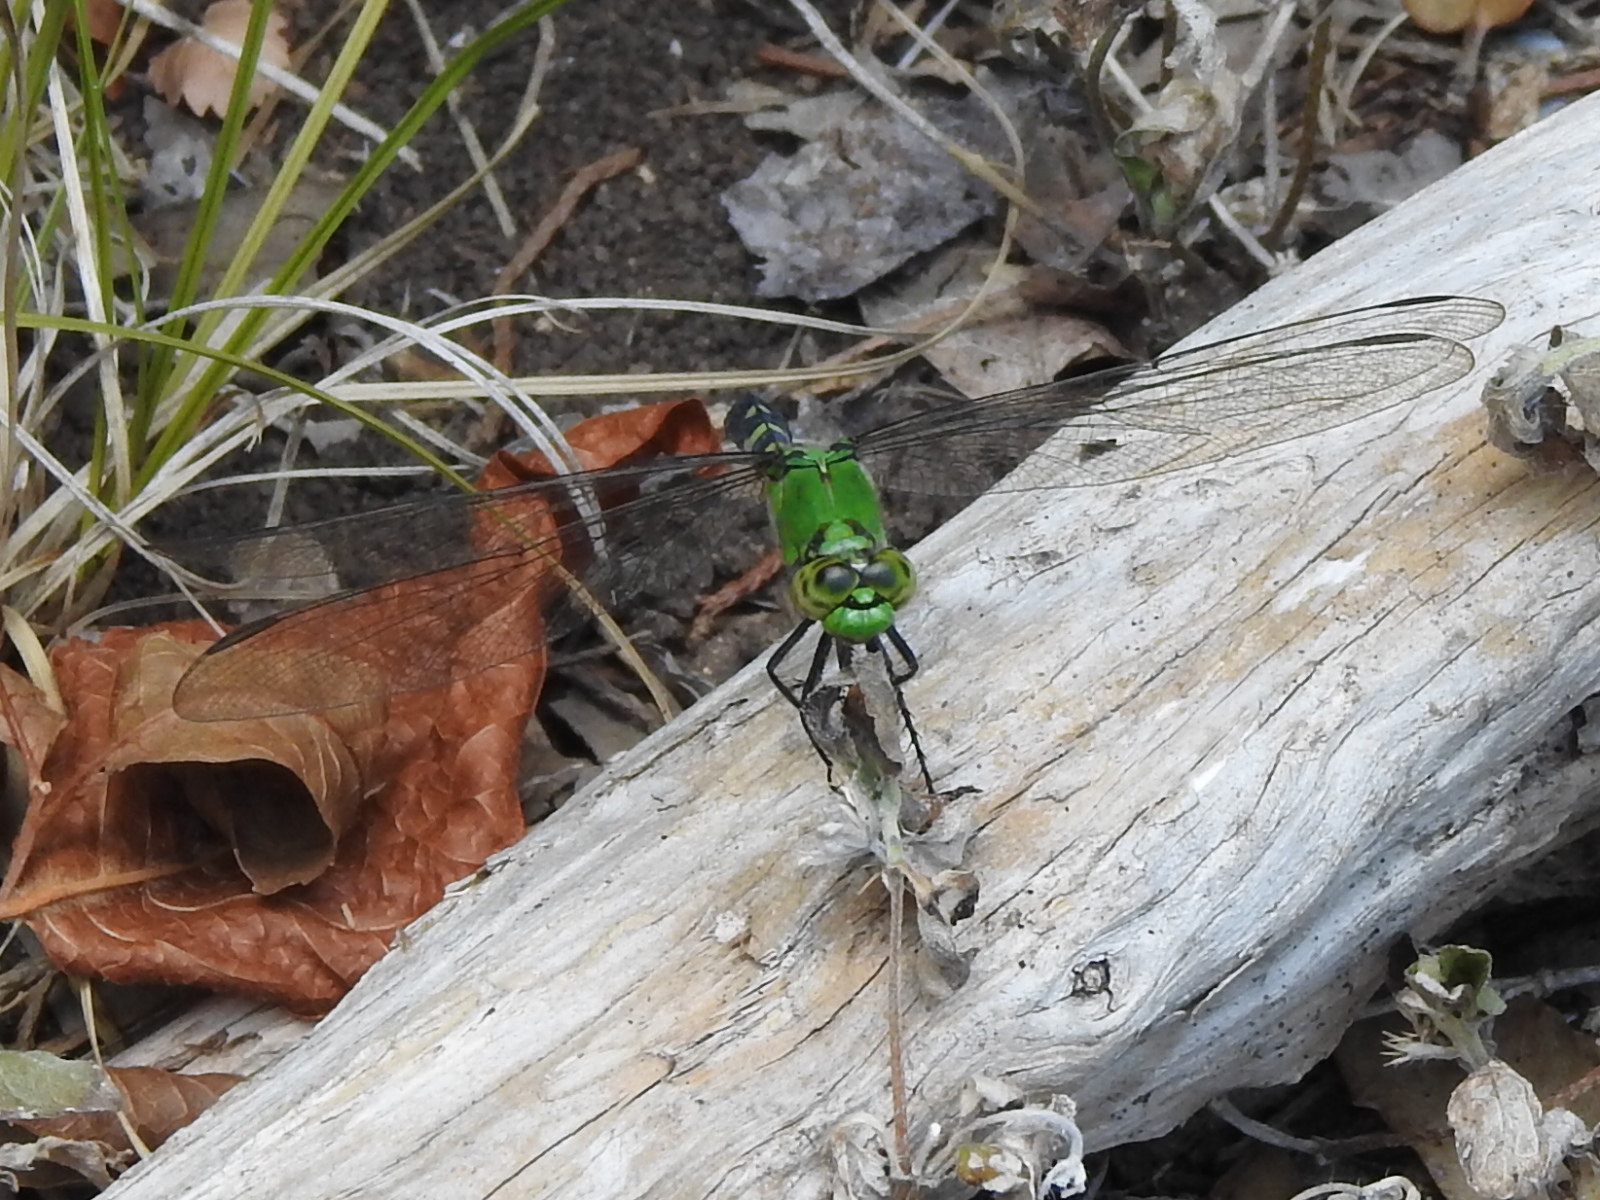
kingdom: Animalia
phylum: Arthropoda
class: Insecta
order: Odonata
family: Libellulidae
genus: Erythemis
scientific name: Erythemis simplicicollis
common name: Eastern pondhawk
